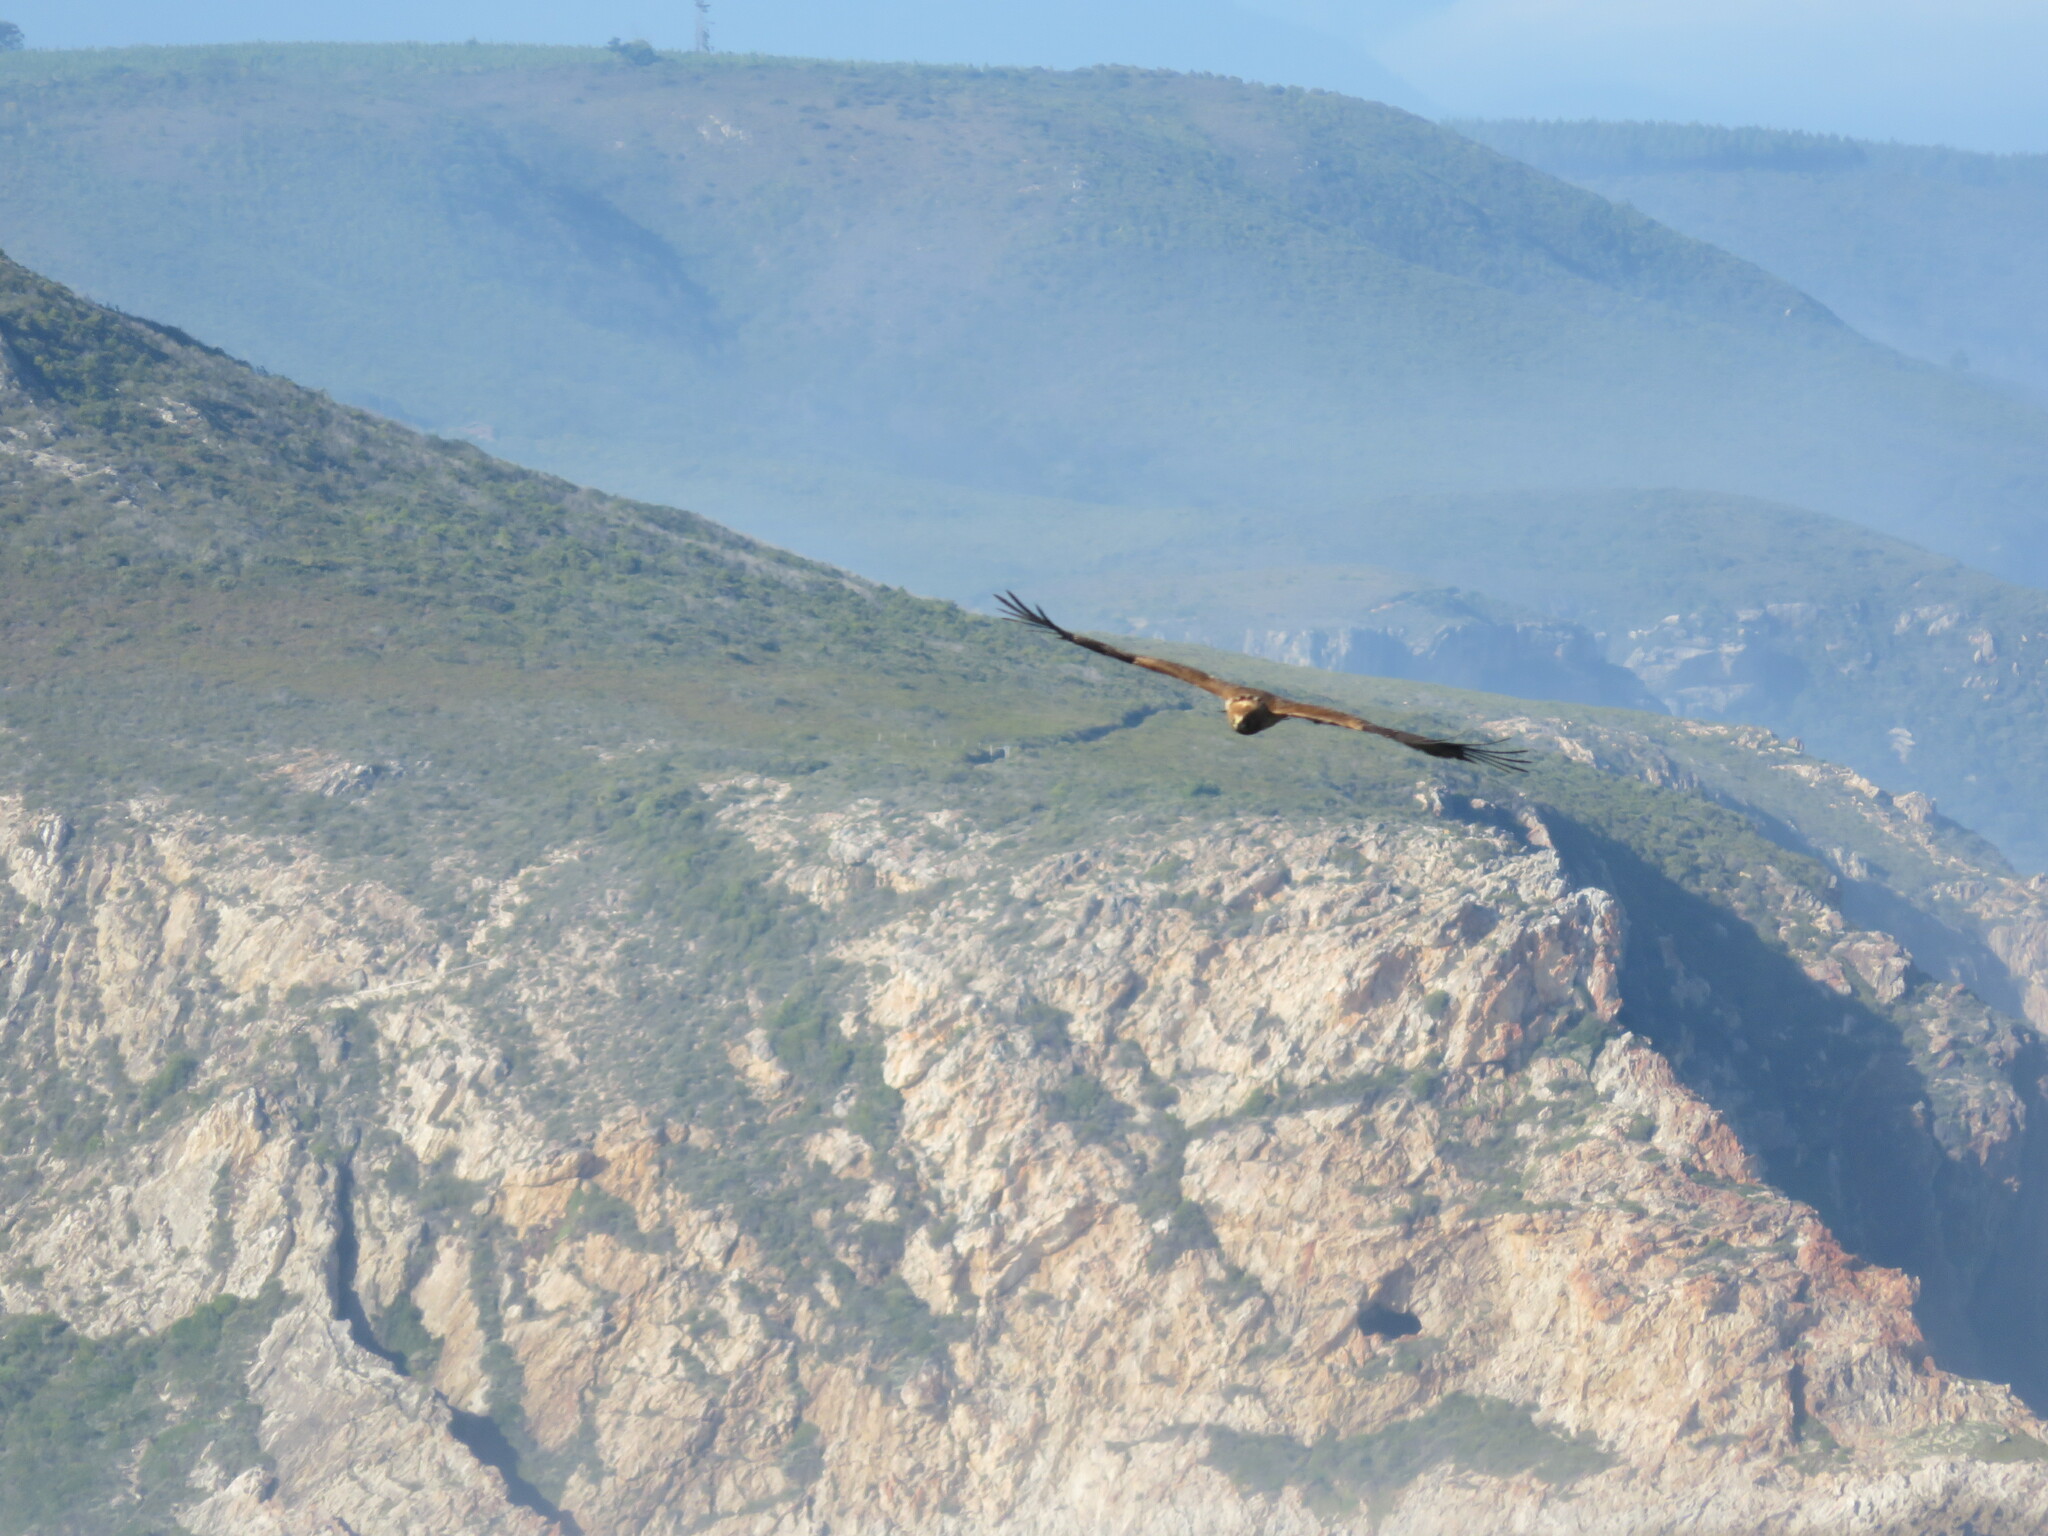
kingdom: Animalia
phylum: Chordata
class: Aves
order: Accipitriformes
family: Accipitridae
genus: Polyboroides
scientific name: Polyboroides typus
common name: African harrier-hawk
